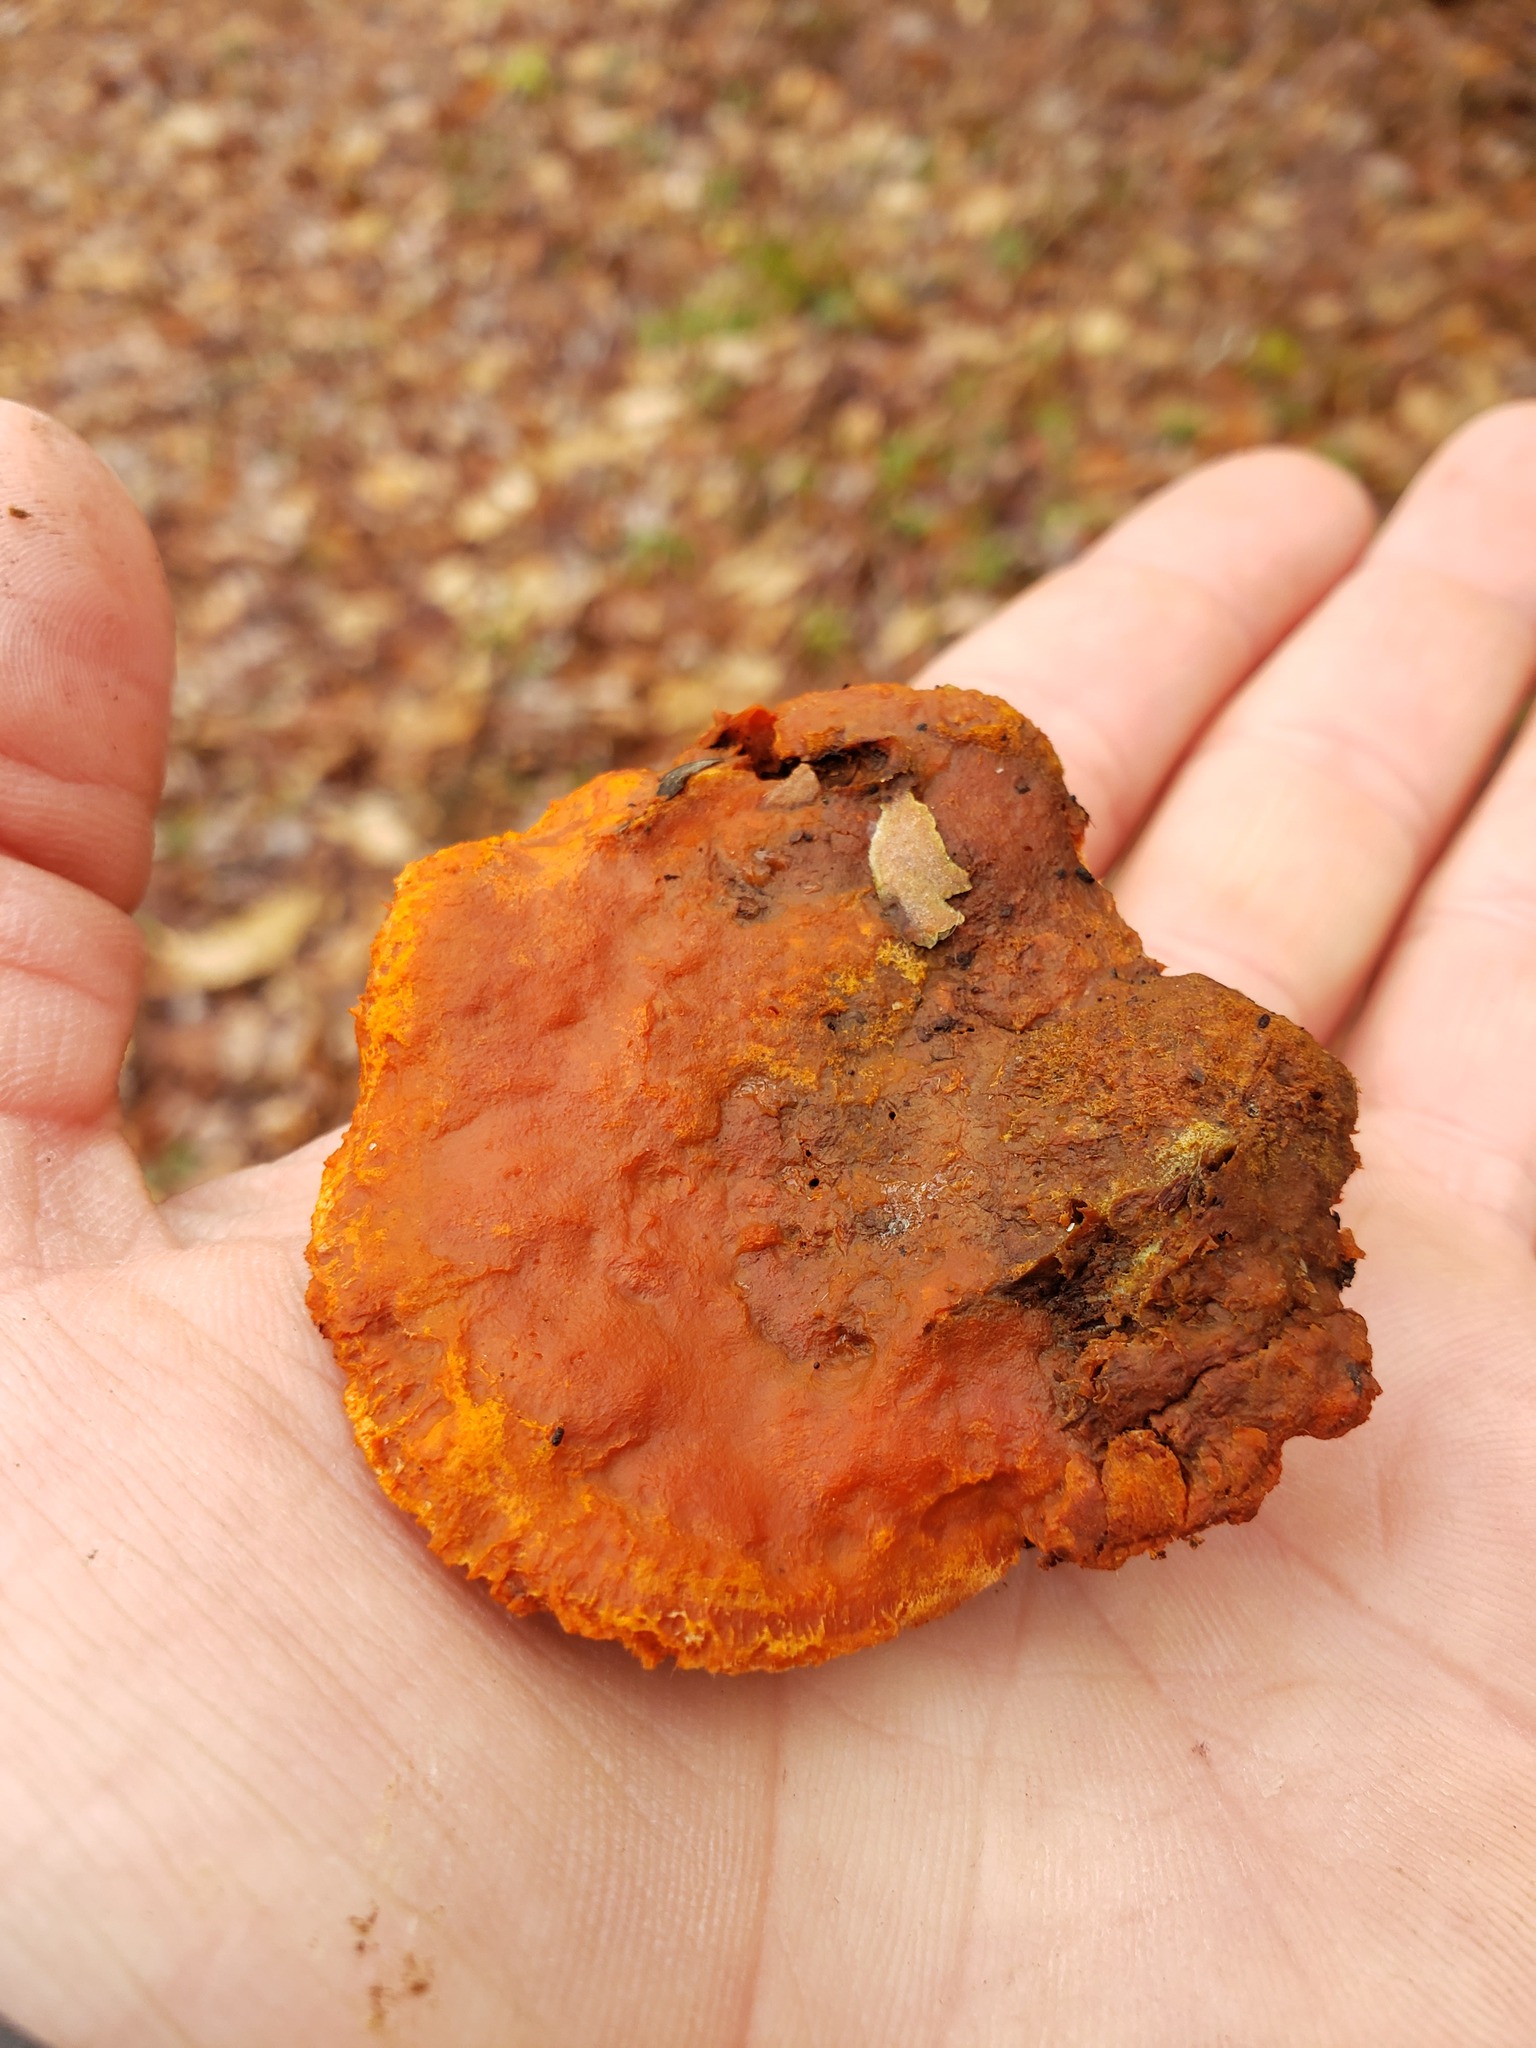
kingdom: Fungi
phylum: Basidiomycota
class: Agaricomycetes
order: Polyporales
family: Polyporaceae
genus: Trametes
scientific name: Trametes cinnabarina
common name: Northern cinnabar polypore
